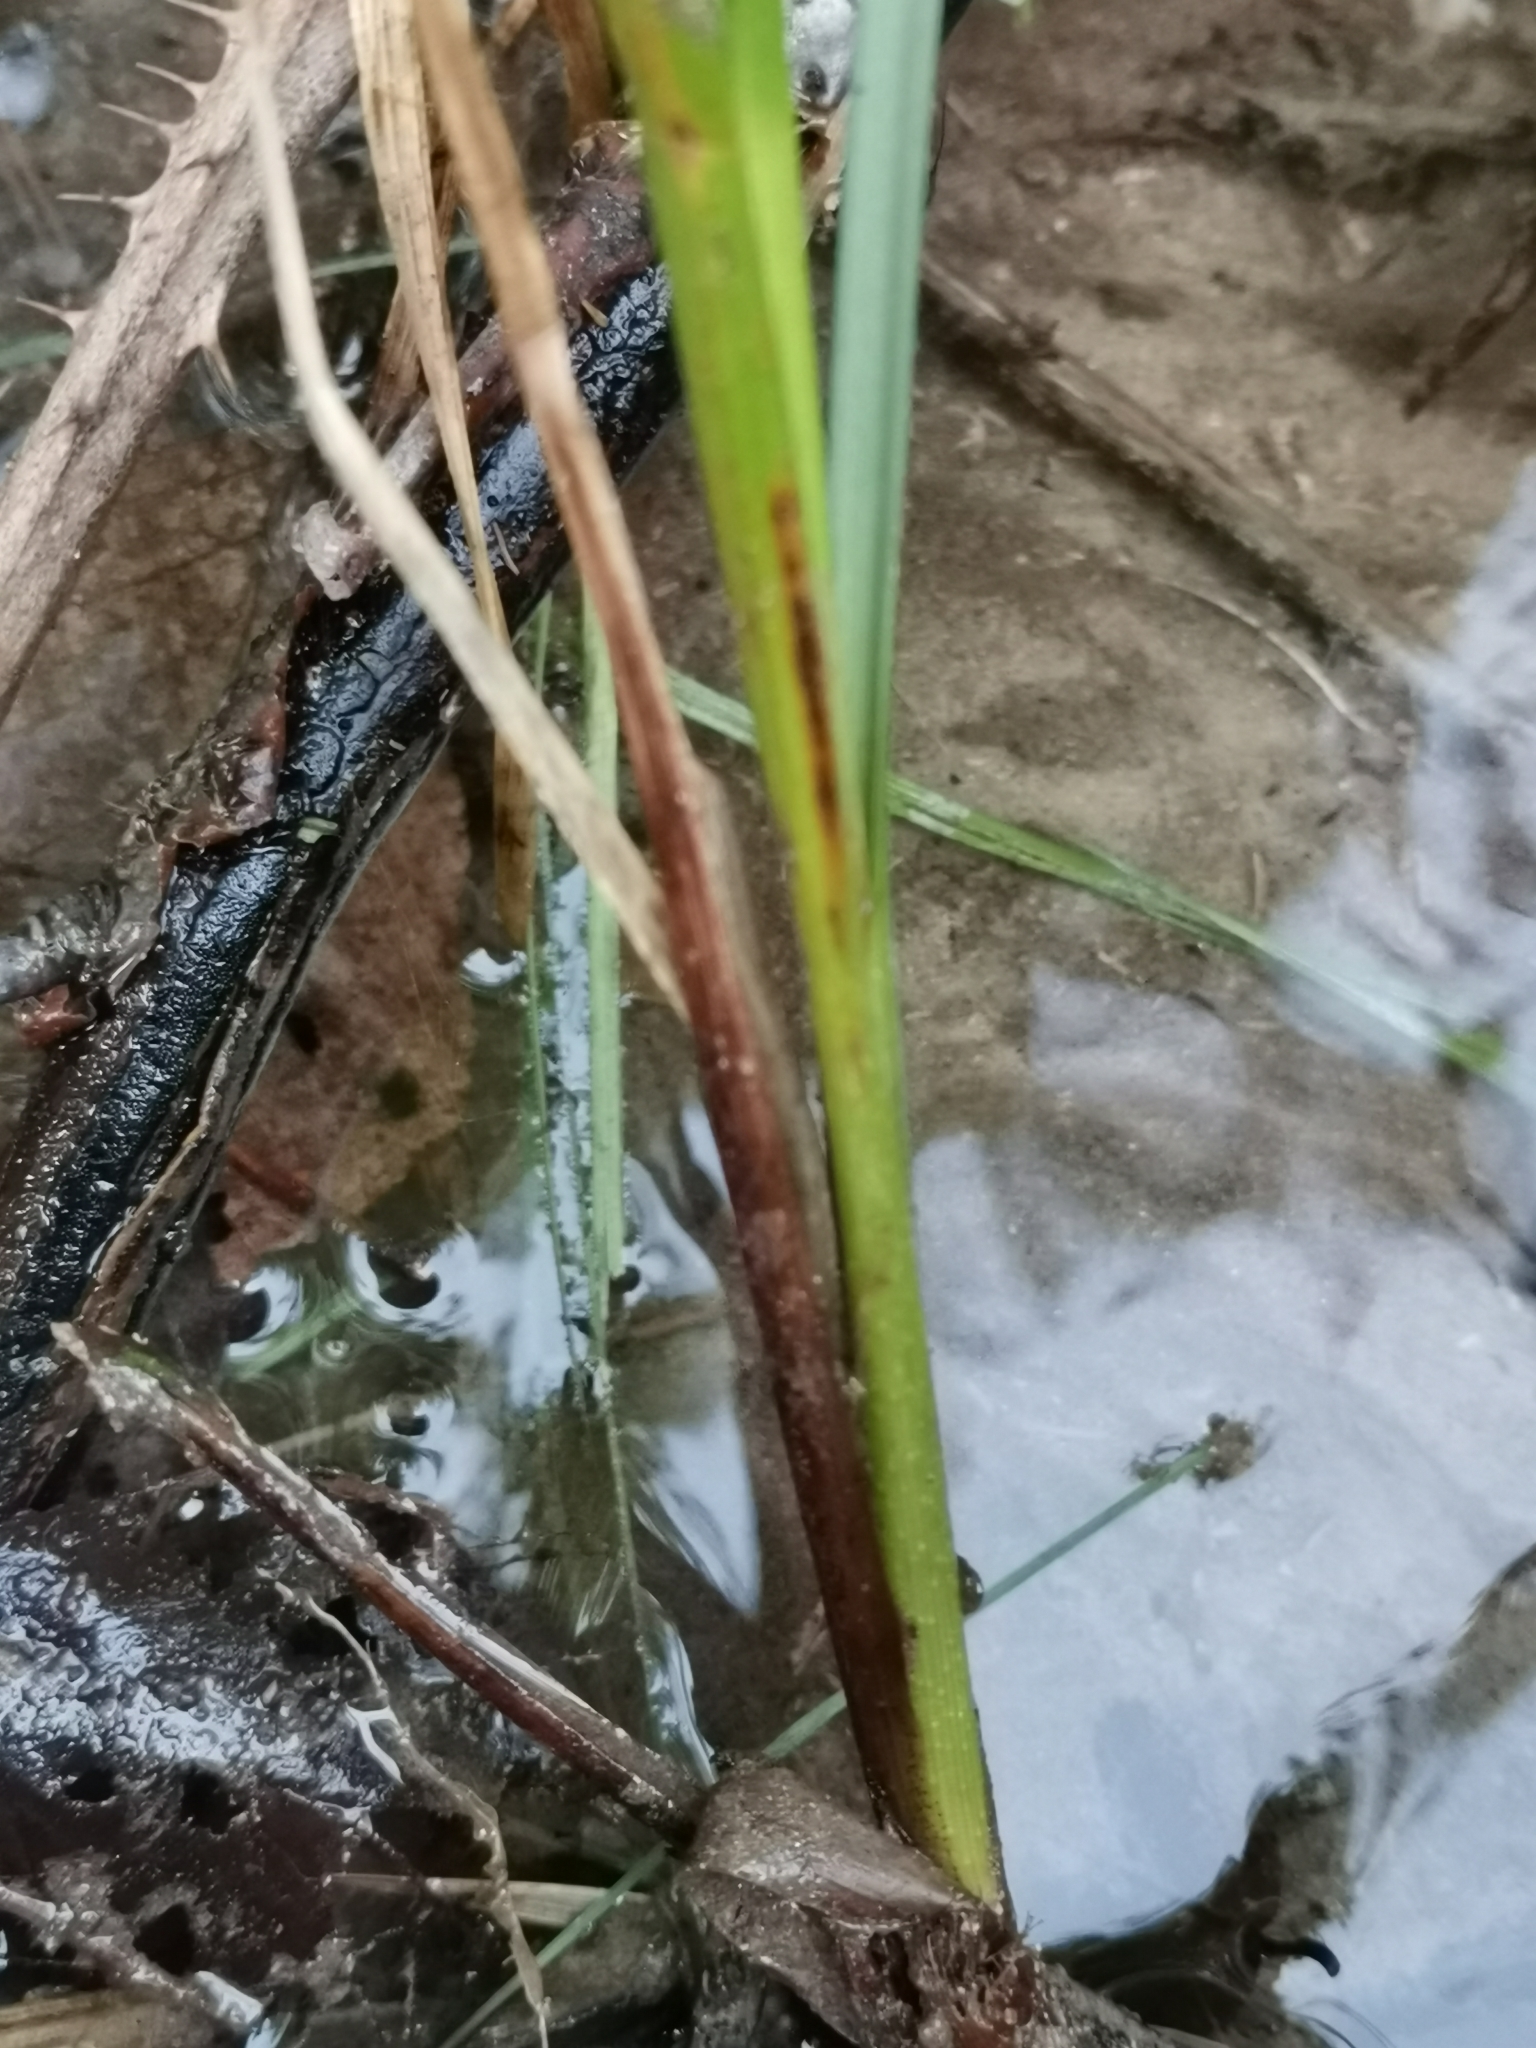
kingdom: Plantae
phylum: Tracheophyta
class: Liliopsida
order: Poales
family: Cyperaceae
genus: Carex
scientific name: Carex rostrata
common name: Bottle sedge
